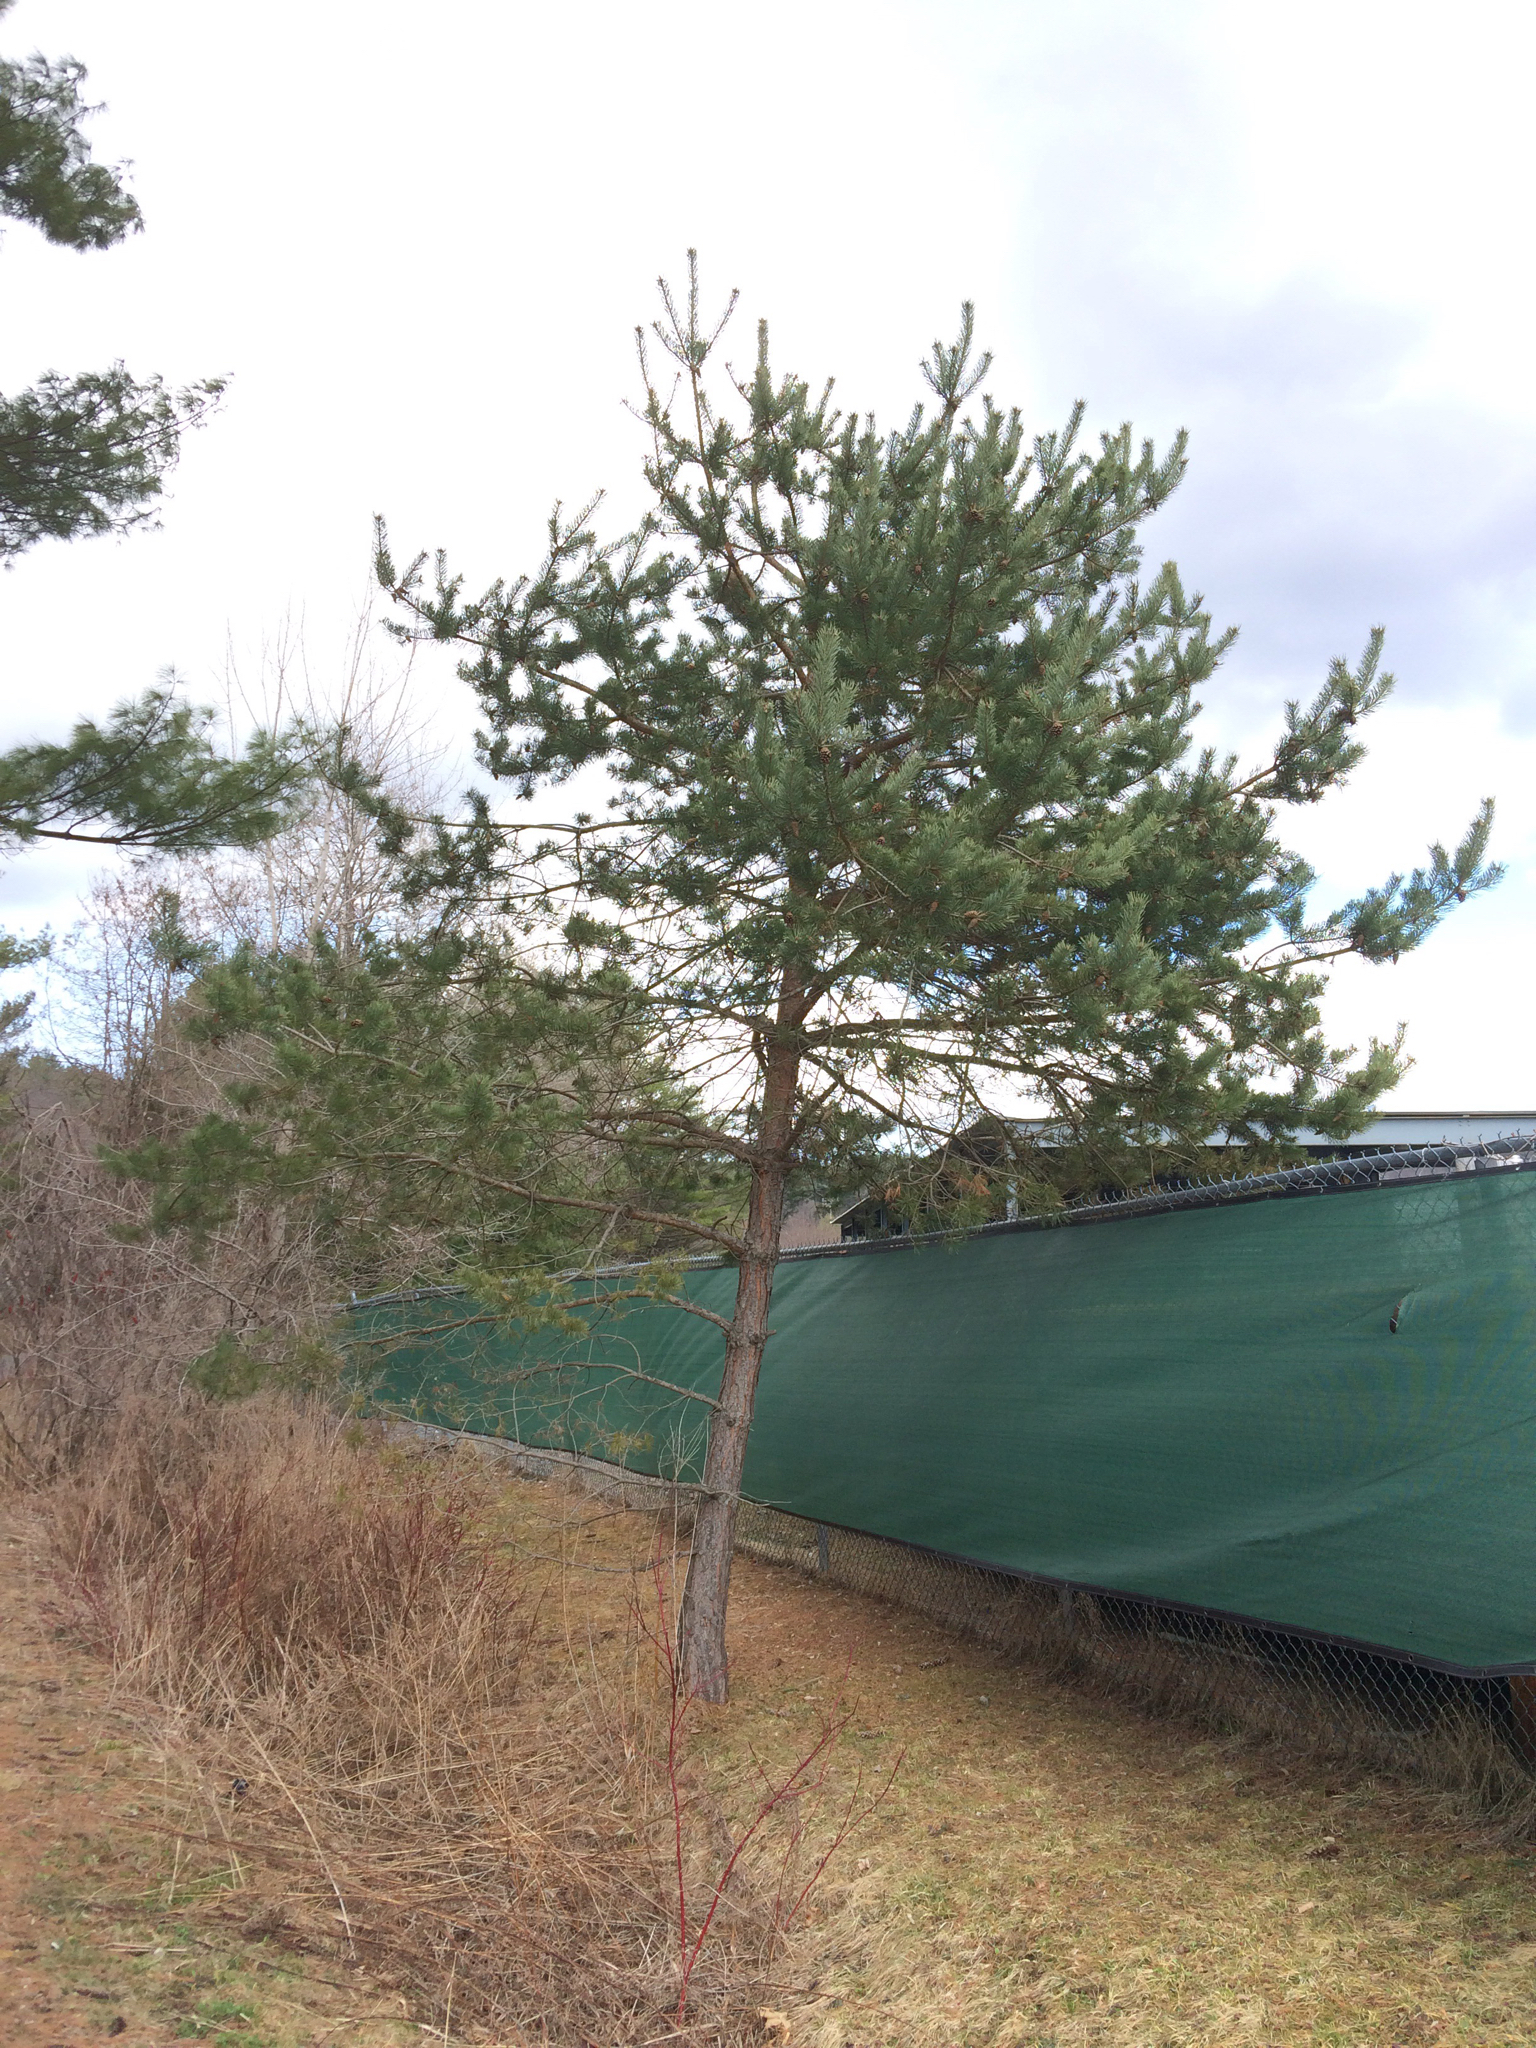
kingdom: Plantae
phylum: Tracheophyta
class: Pinopsida
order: Pinales
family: Pinaceae
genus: Pinus
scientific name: Pinus sylvestris
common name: Scots pine
